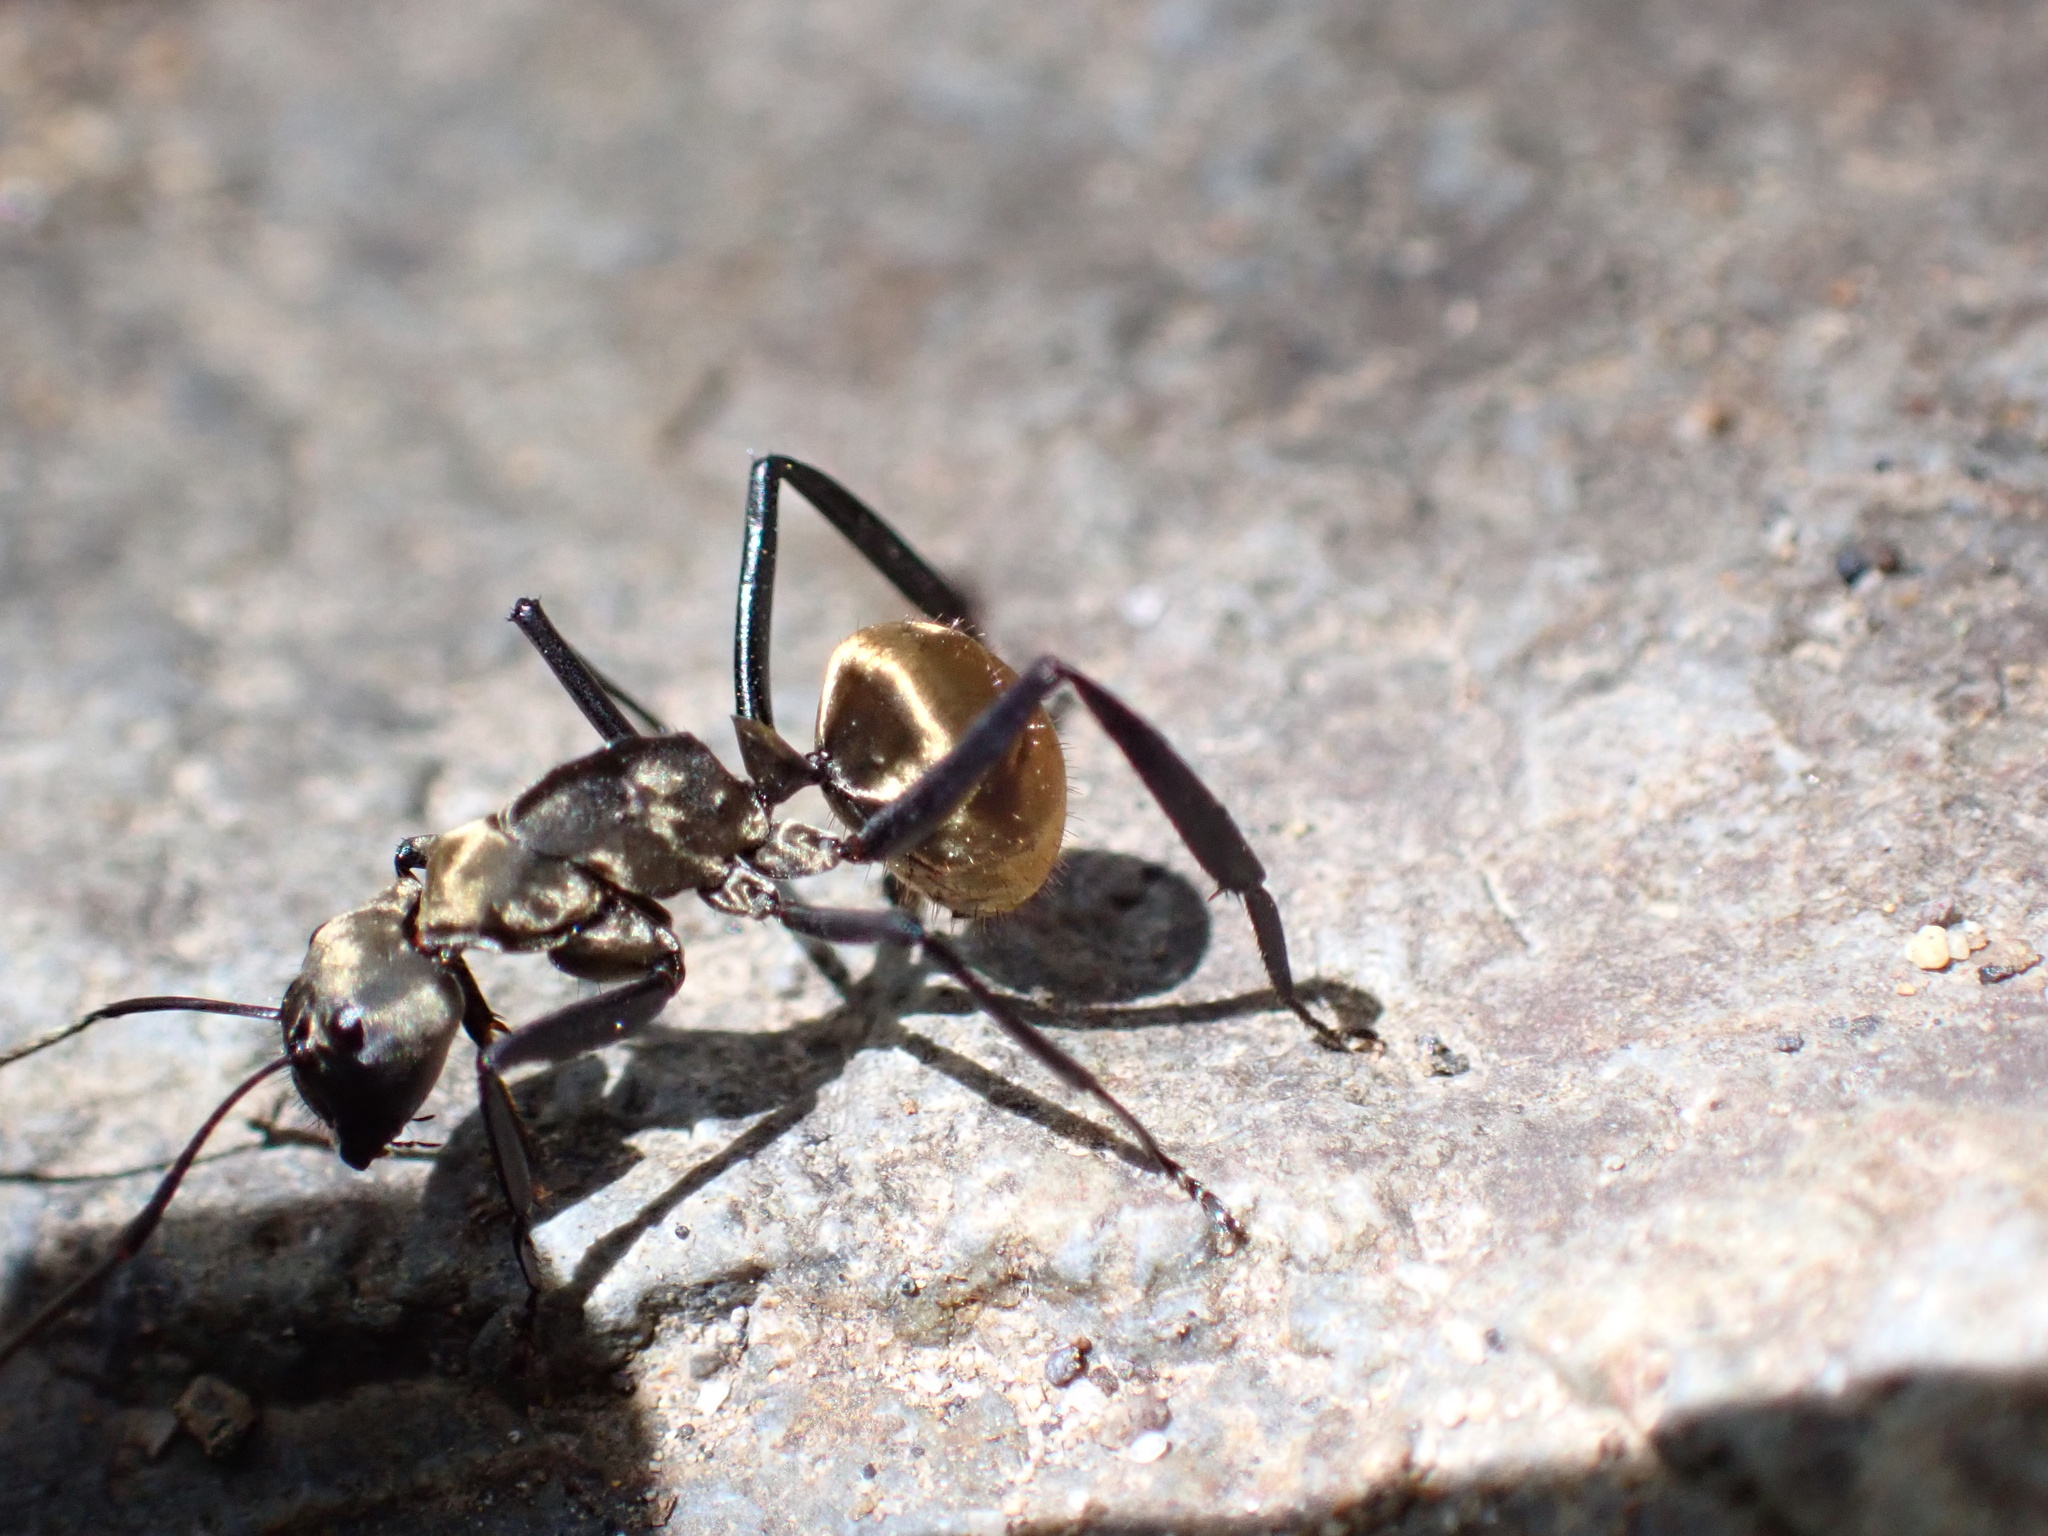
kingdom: Animalia
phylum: Arthropoda
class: Insecta
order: Hymenoptera
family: Formicidae
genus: Camponotus
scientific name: Camponotus sericeiventris
